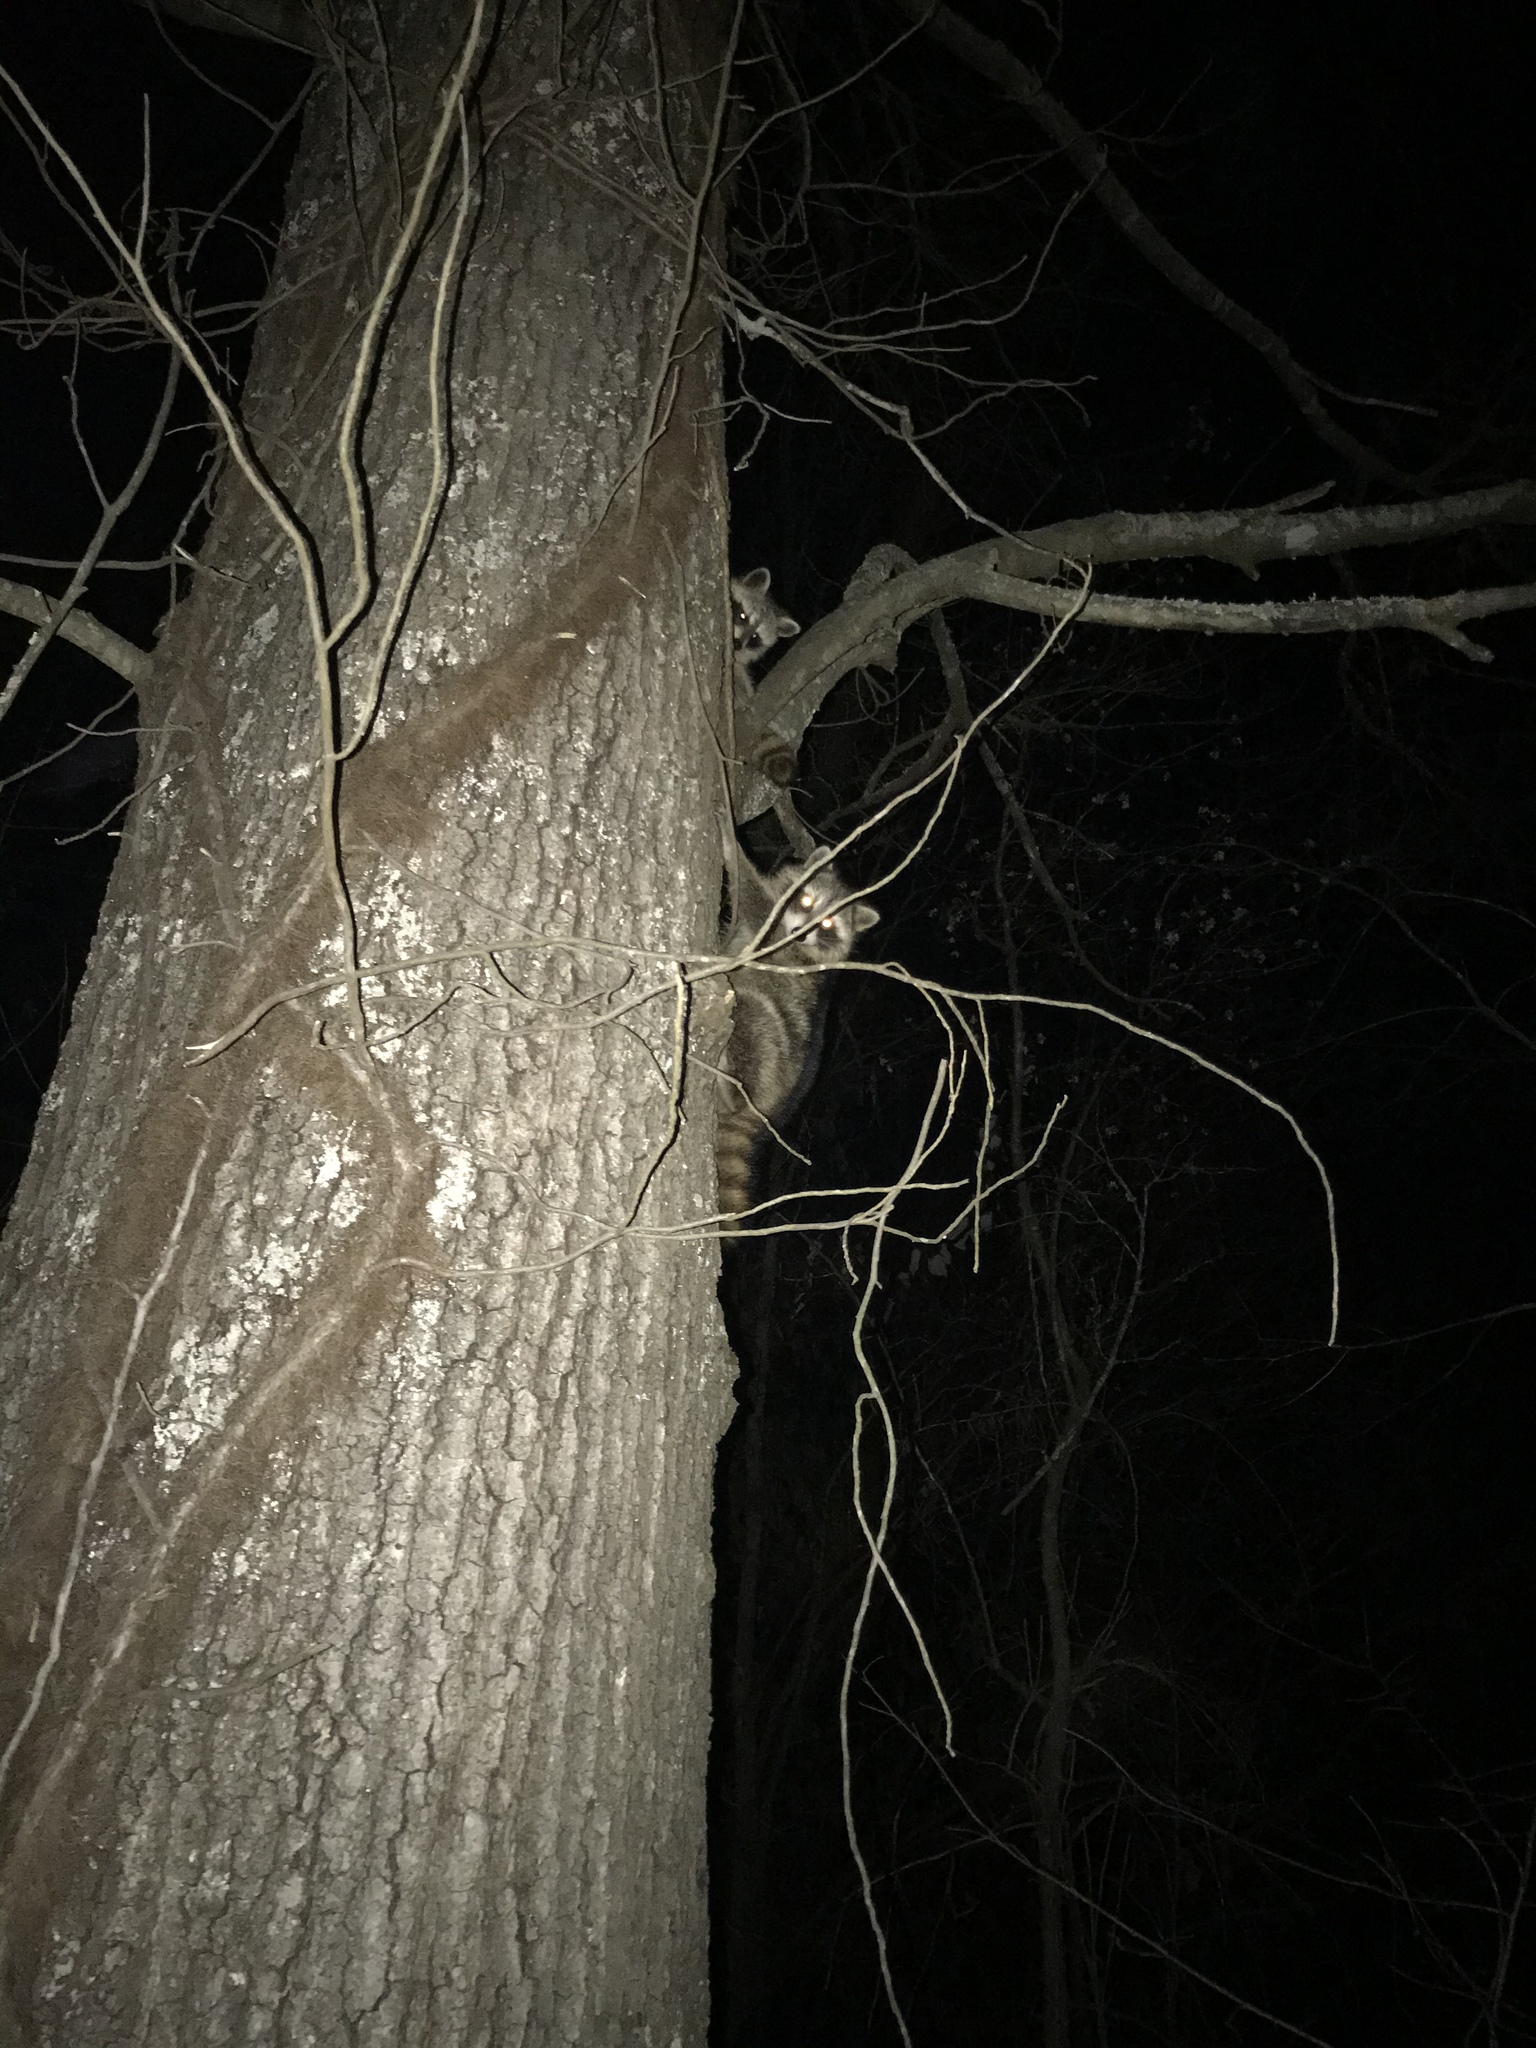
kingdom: Animalia
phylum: Chordata
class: Mammalia
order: Carnivora
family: Procyonidae
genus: Procyon
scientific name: Procyon lotor
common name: Raccoon
